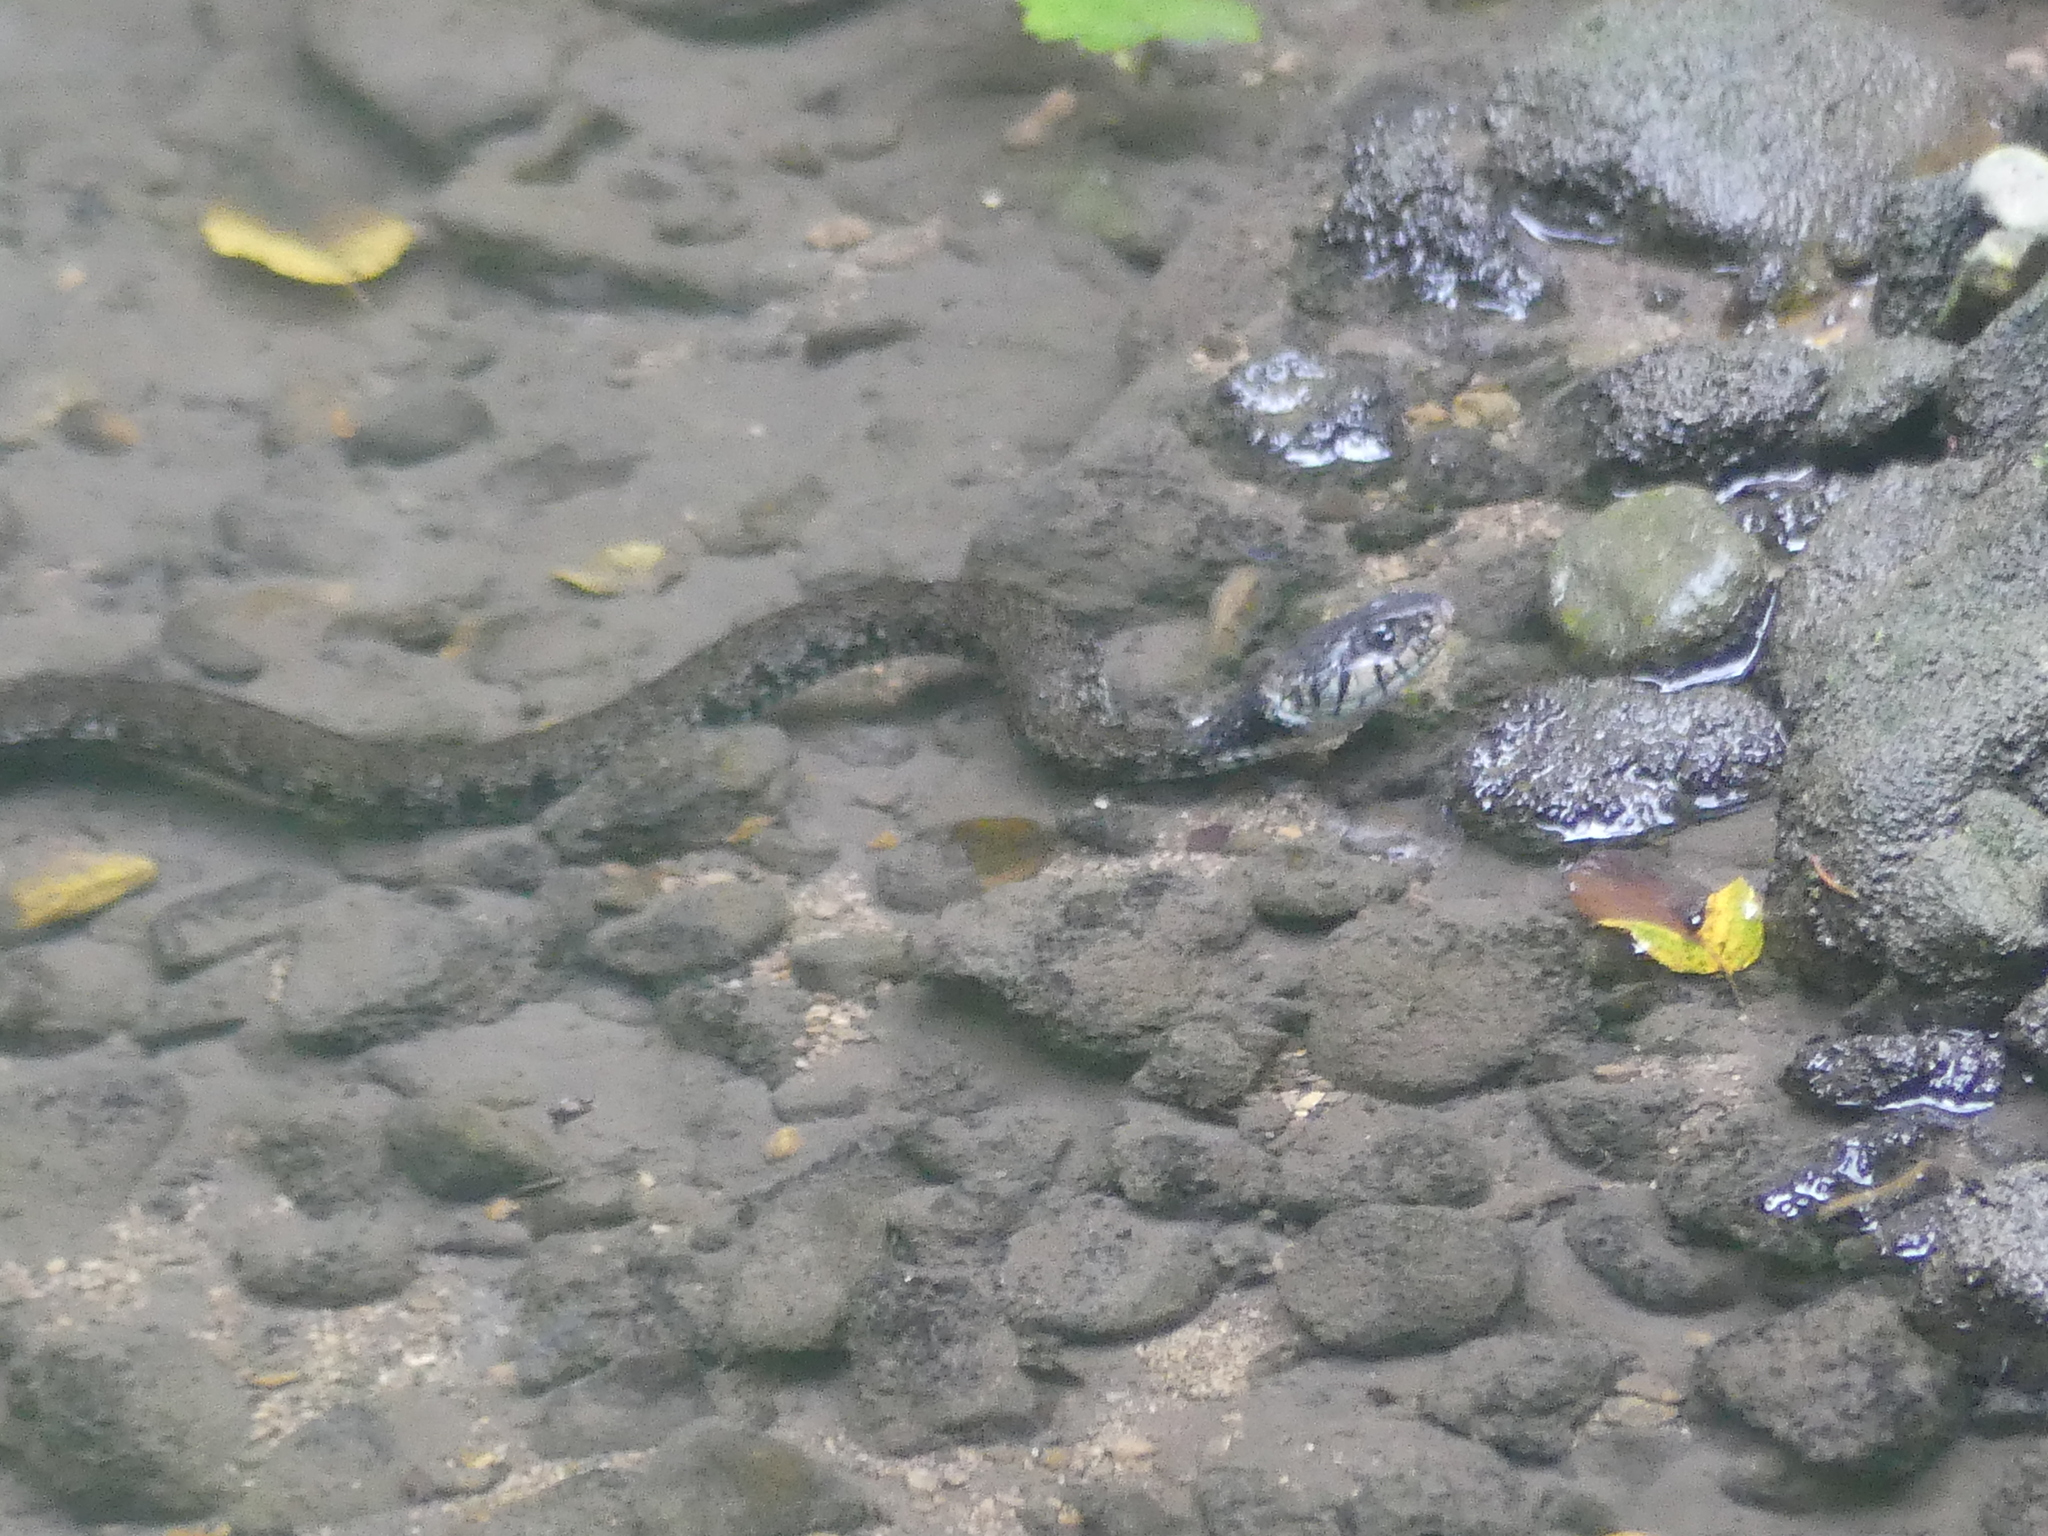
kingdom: Animalia
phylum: Chordata
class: Squamata
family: Colubridae
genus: Natrix
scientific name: Natrix helvetica
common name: Banded grass snake
